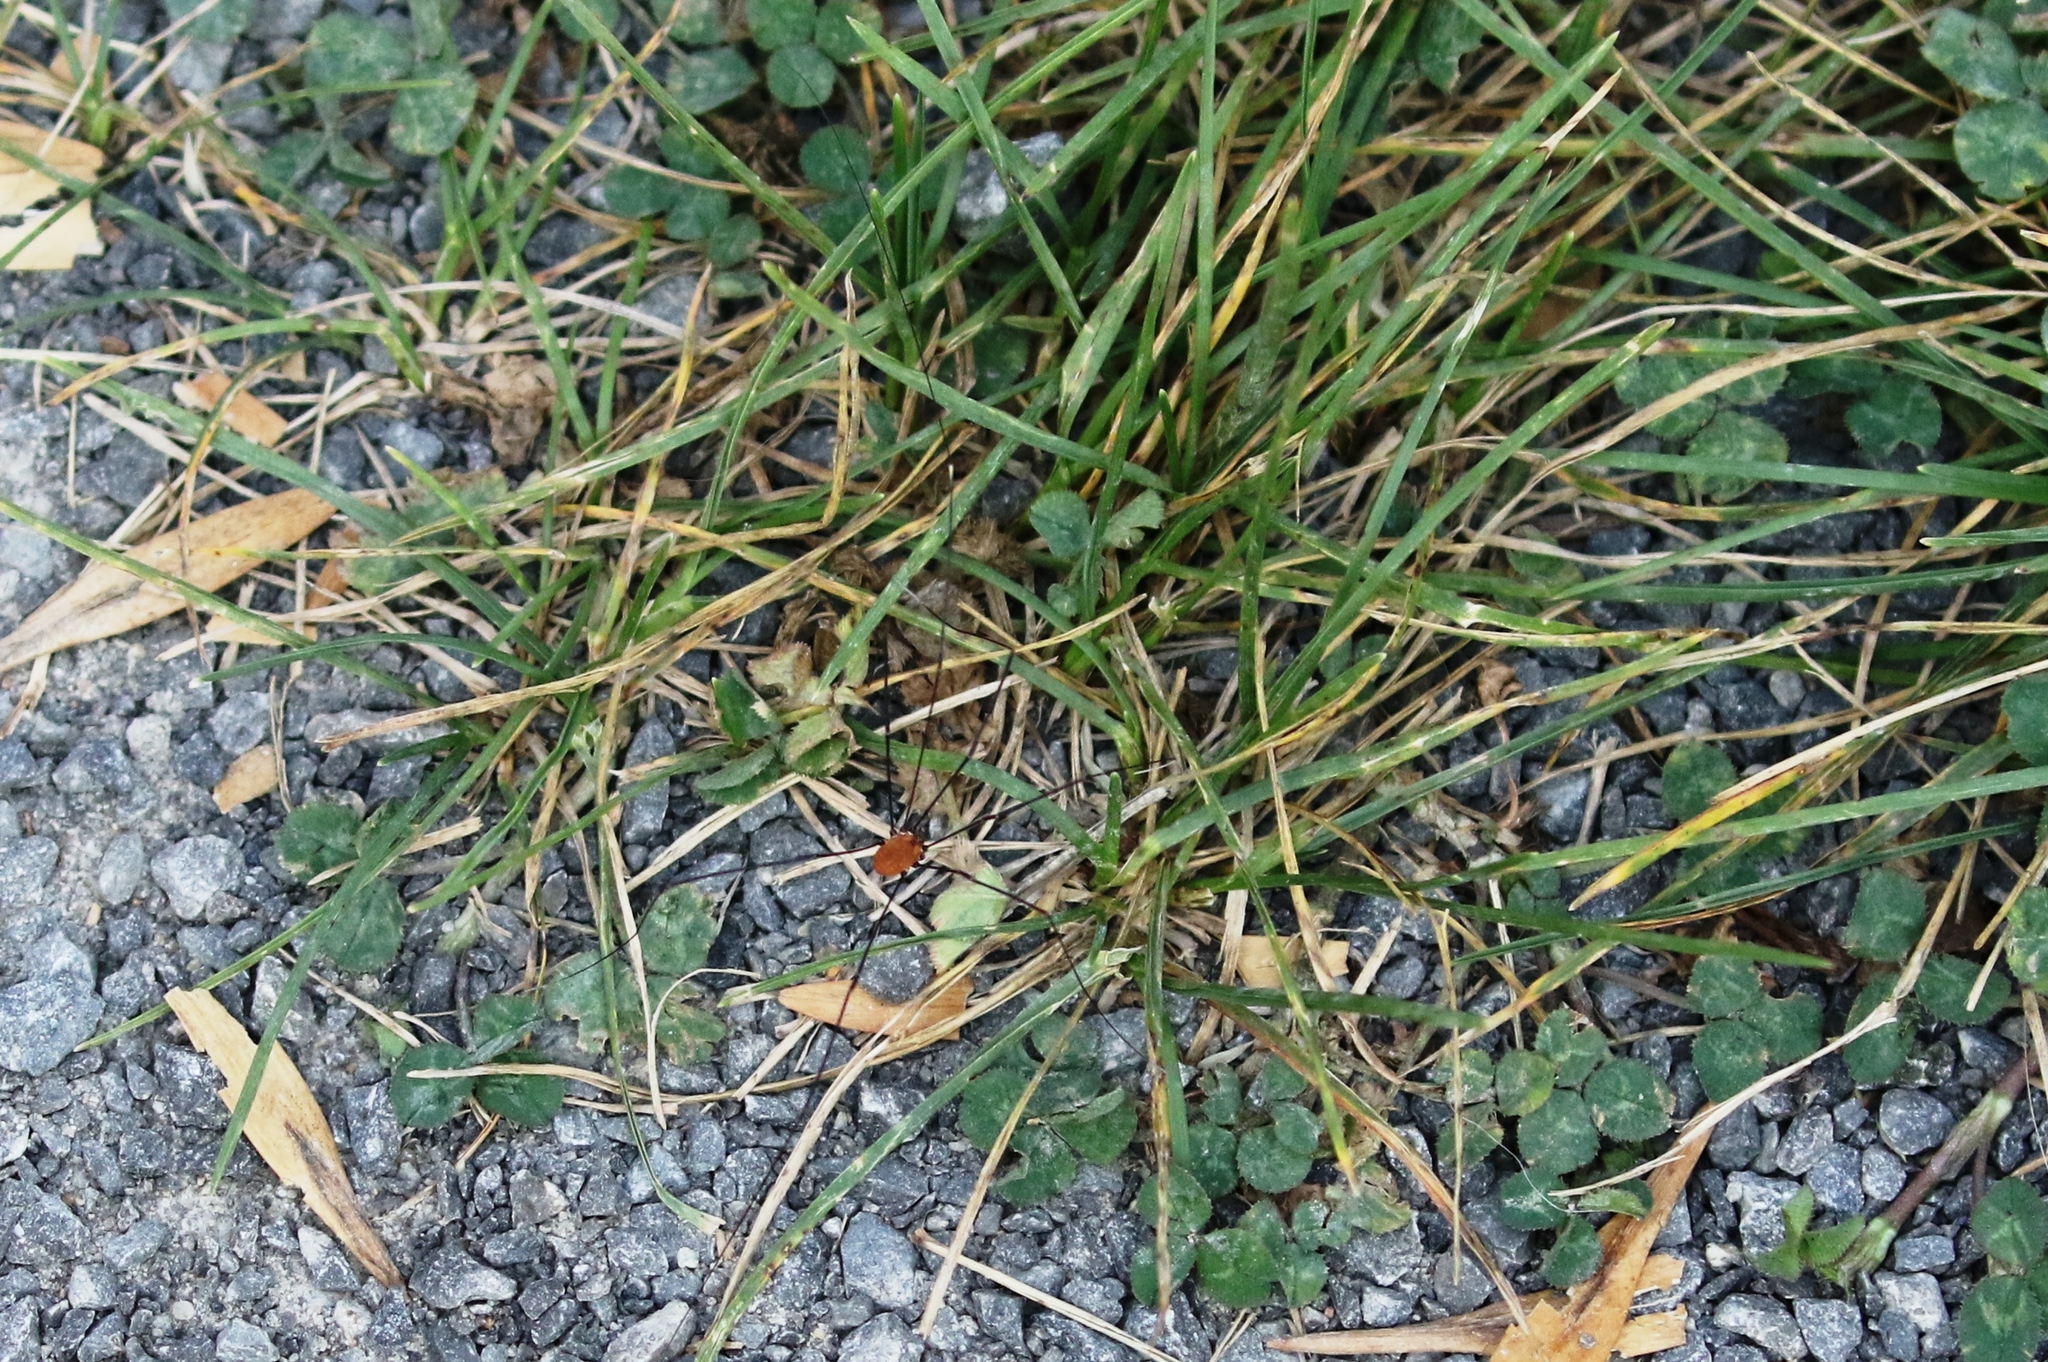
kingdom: Animalia
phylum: Arthropoda
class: Arachnida
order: Opiliones
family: Sclerosomatidae
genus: Leiobunum
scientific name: Leiobunum aldrichi
